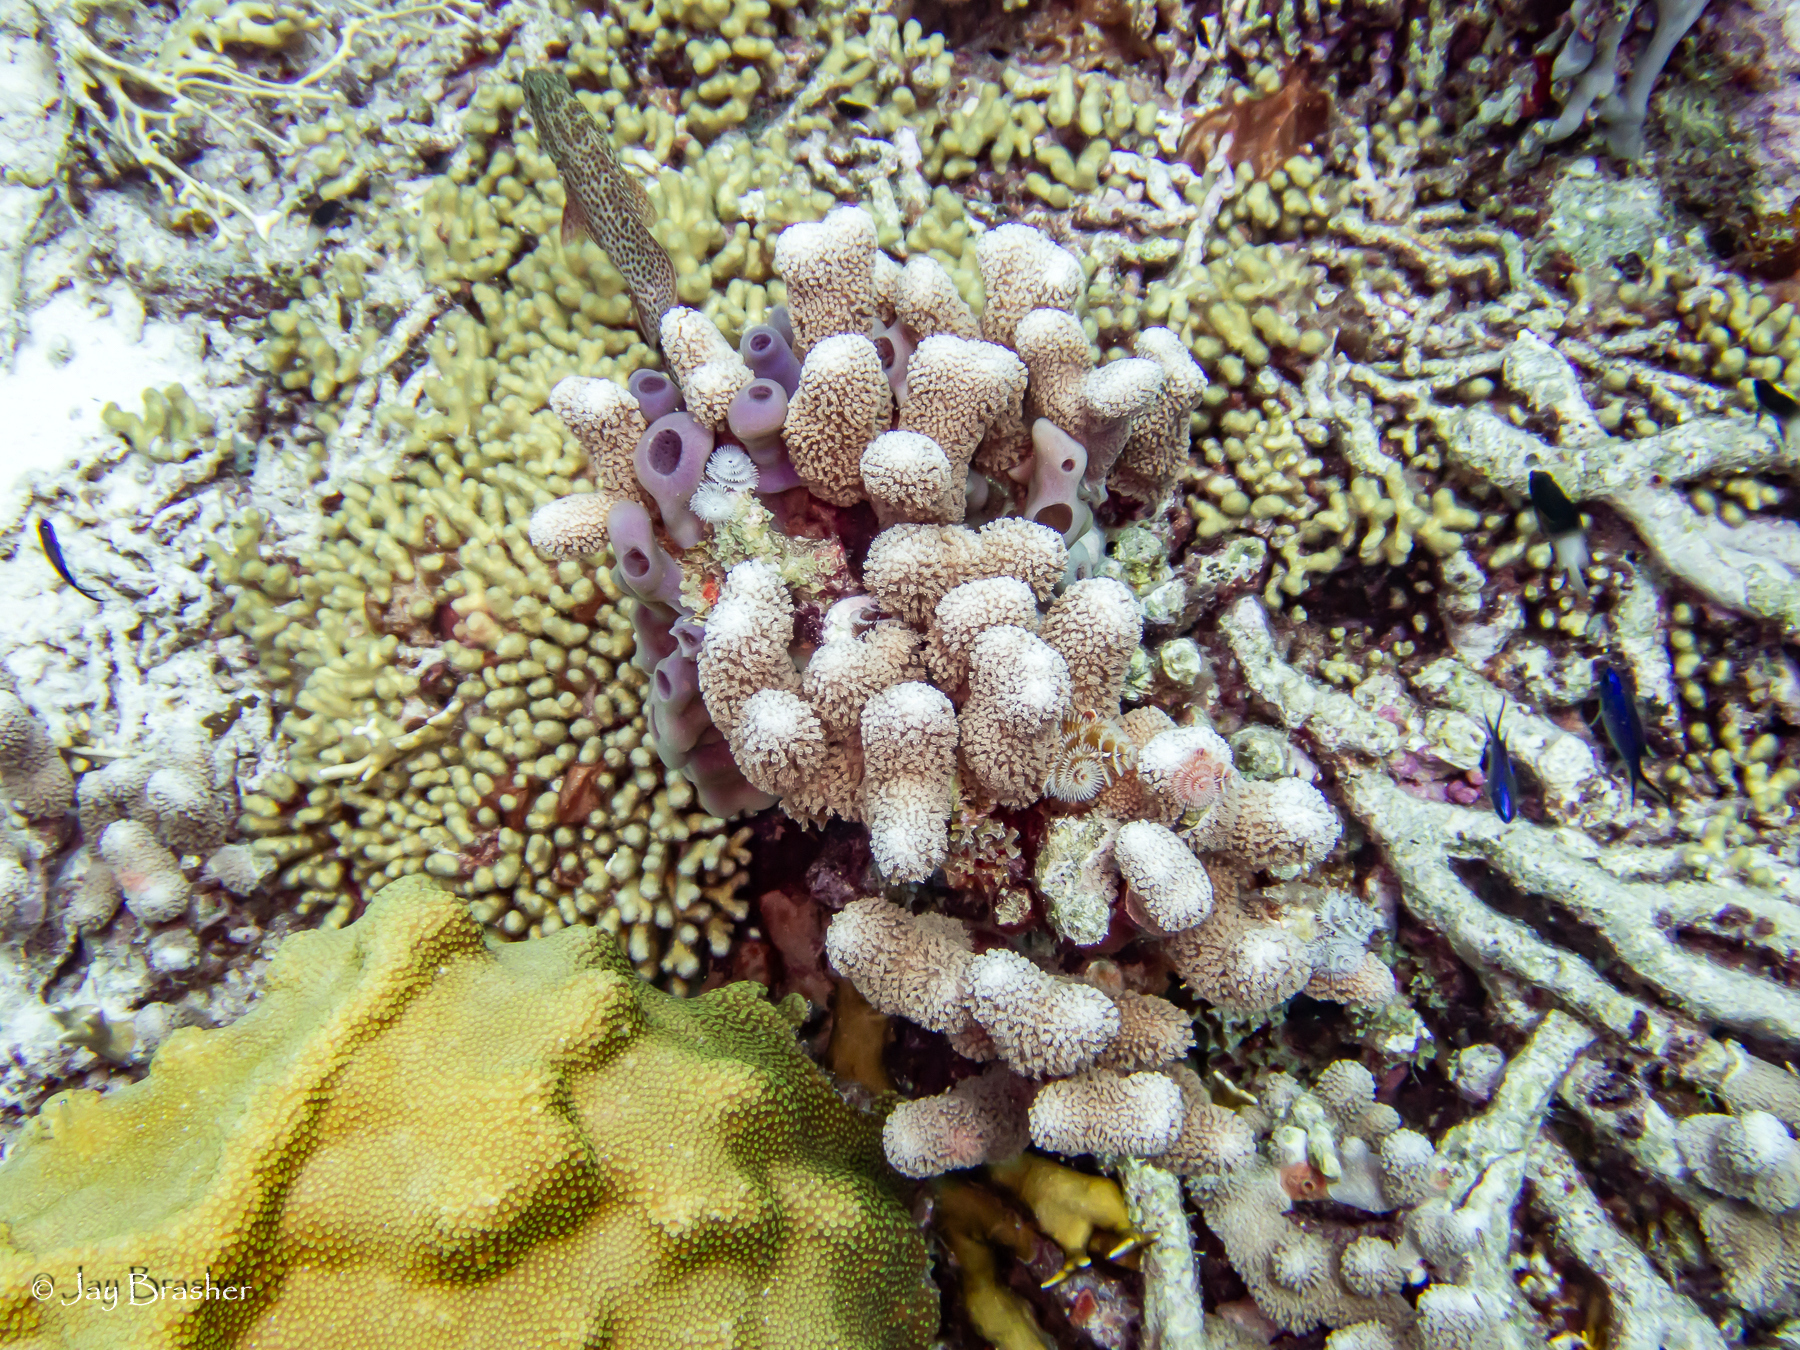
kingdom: Animalia
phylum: Cnidaria
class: Anthozoa
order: Scleractinia
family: Poritidae
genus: Porites
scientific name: Porites porites
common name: Finger coral
